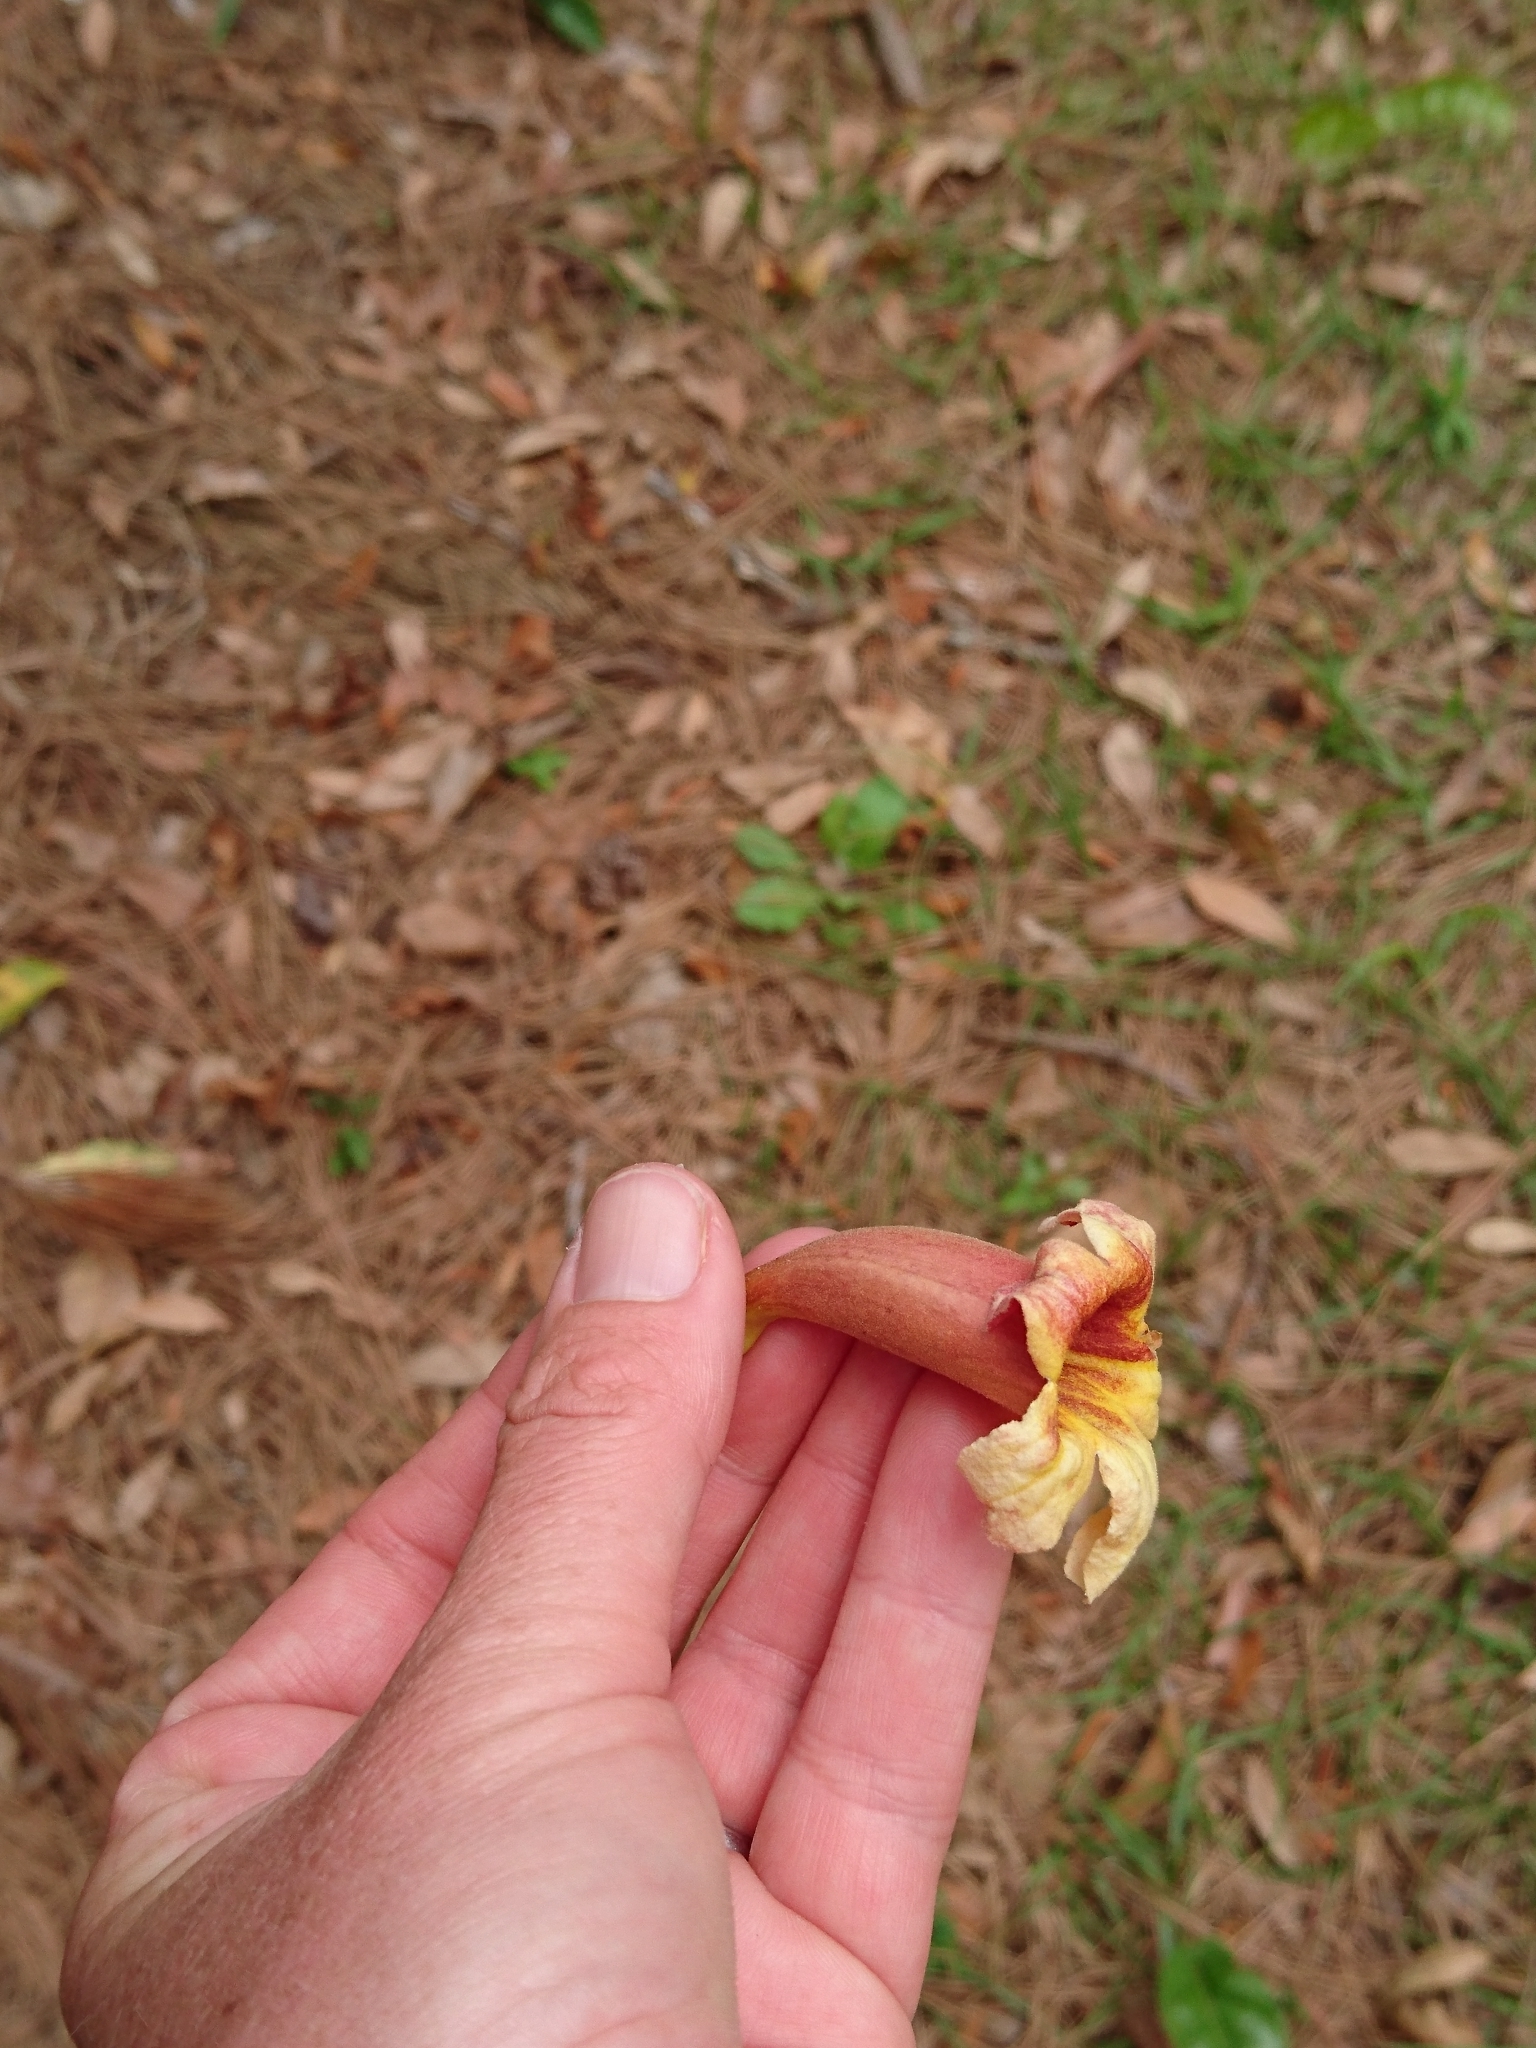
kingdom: Plantae
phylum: Tracheophyta
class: Magnoliopsida
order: Lamiales
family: Bignoniaceae
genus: Bignonia
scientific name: Bignonia capreolata
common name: Crossvine
